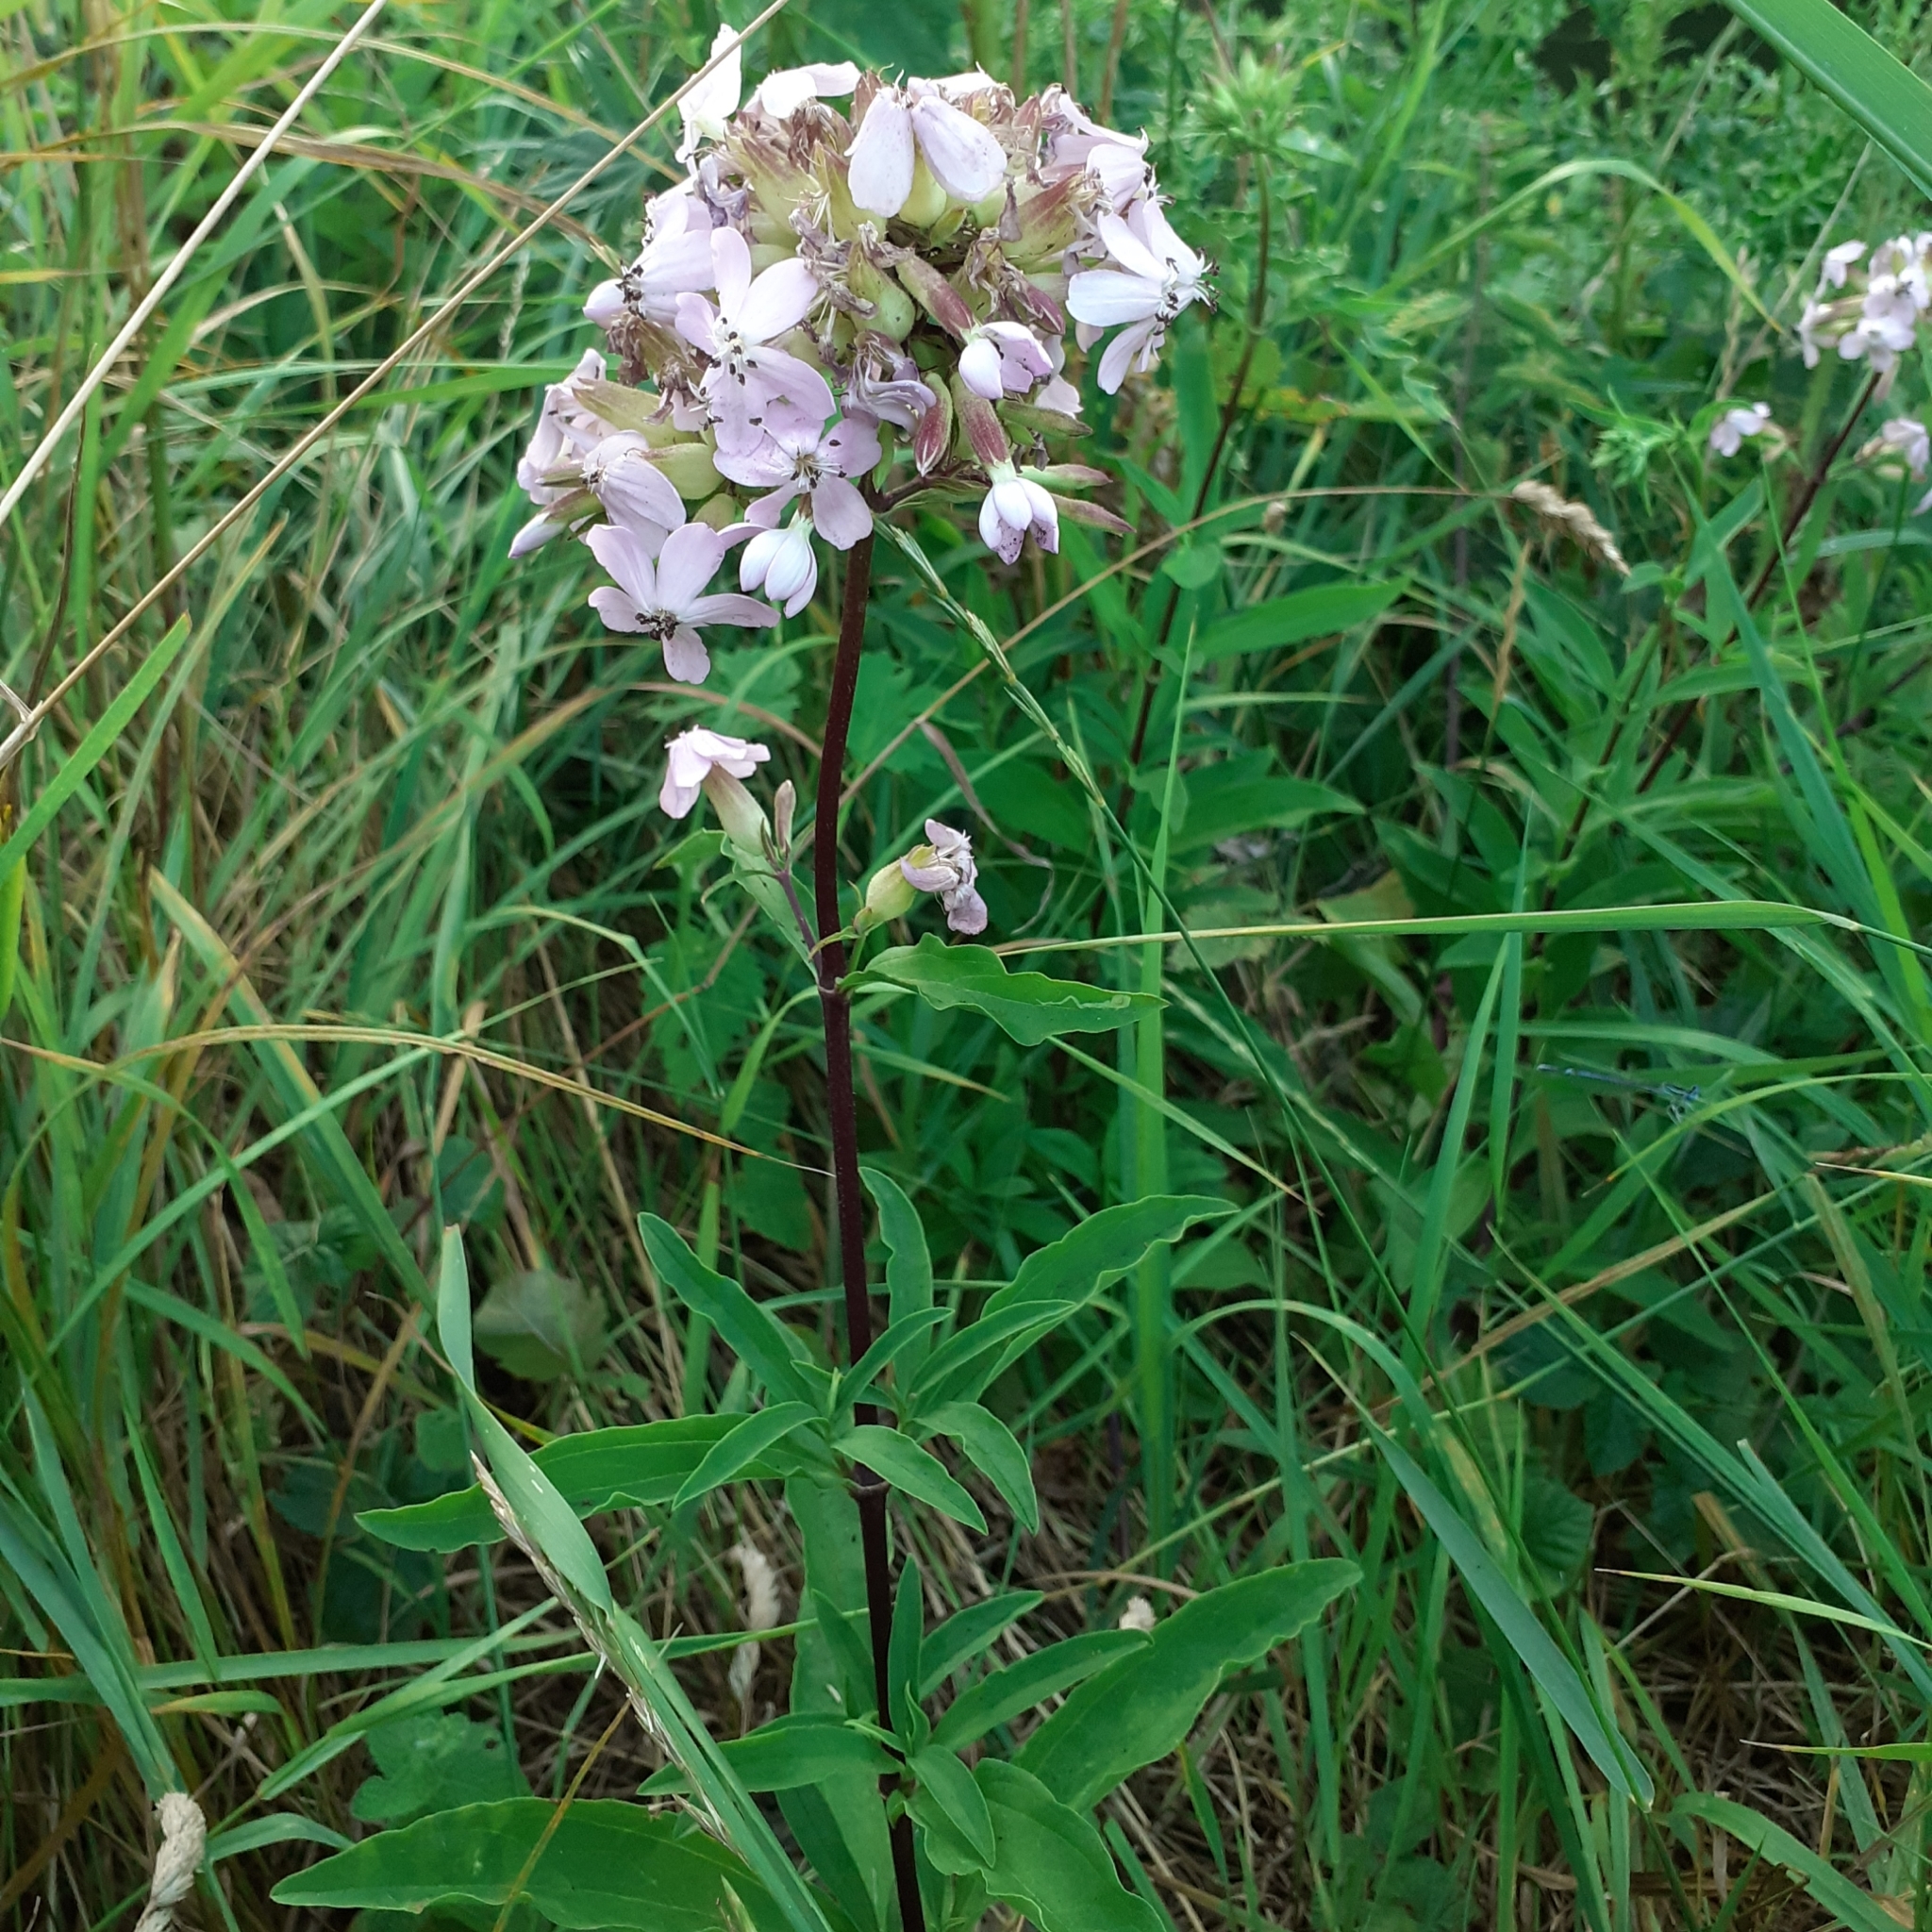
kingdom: Plantae
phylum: Tracheophyta
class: Magnoliopsida
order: Caryophyllales
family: Caryophyllaceae
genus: Saponaria
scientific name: Saponaria officinalis
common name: Soapwort
